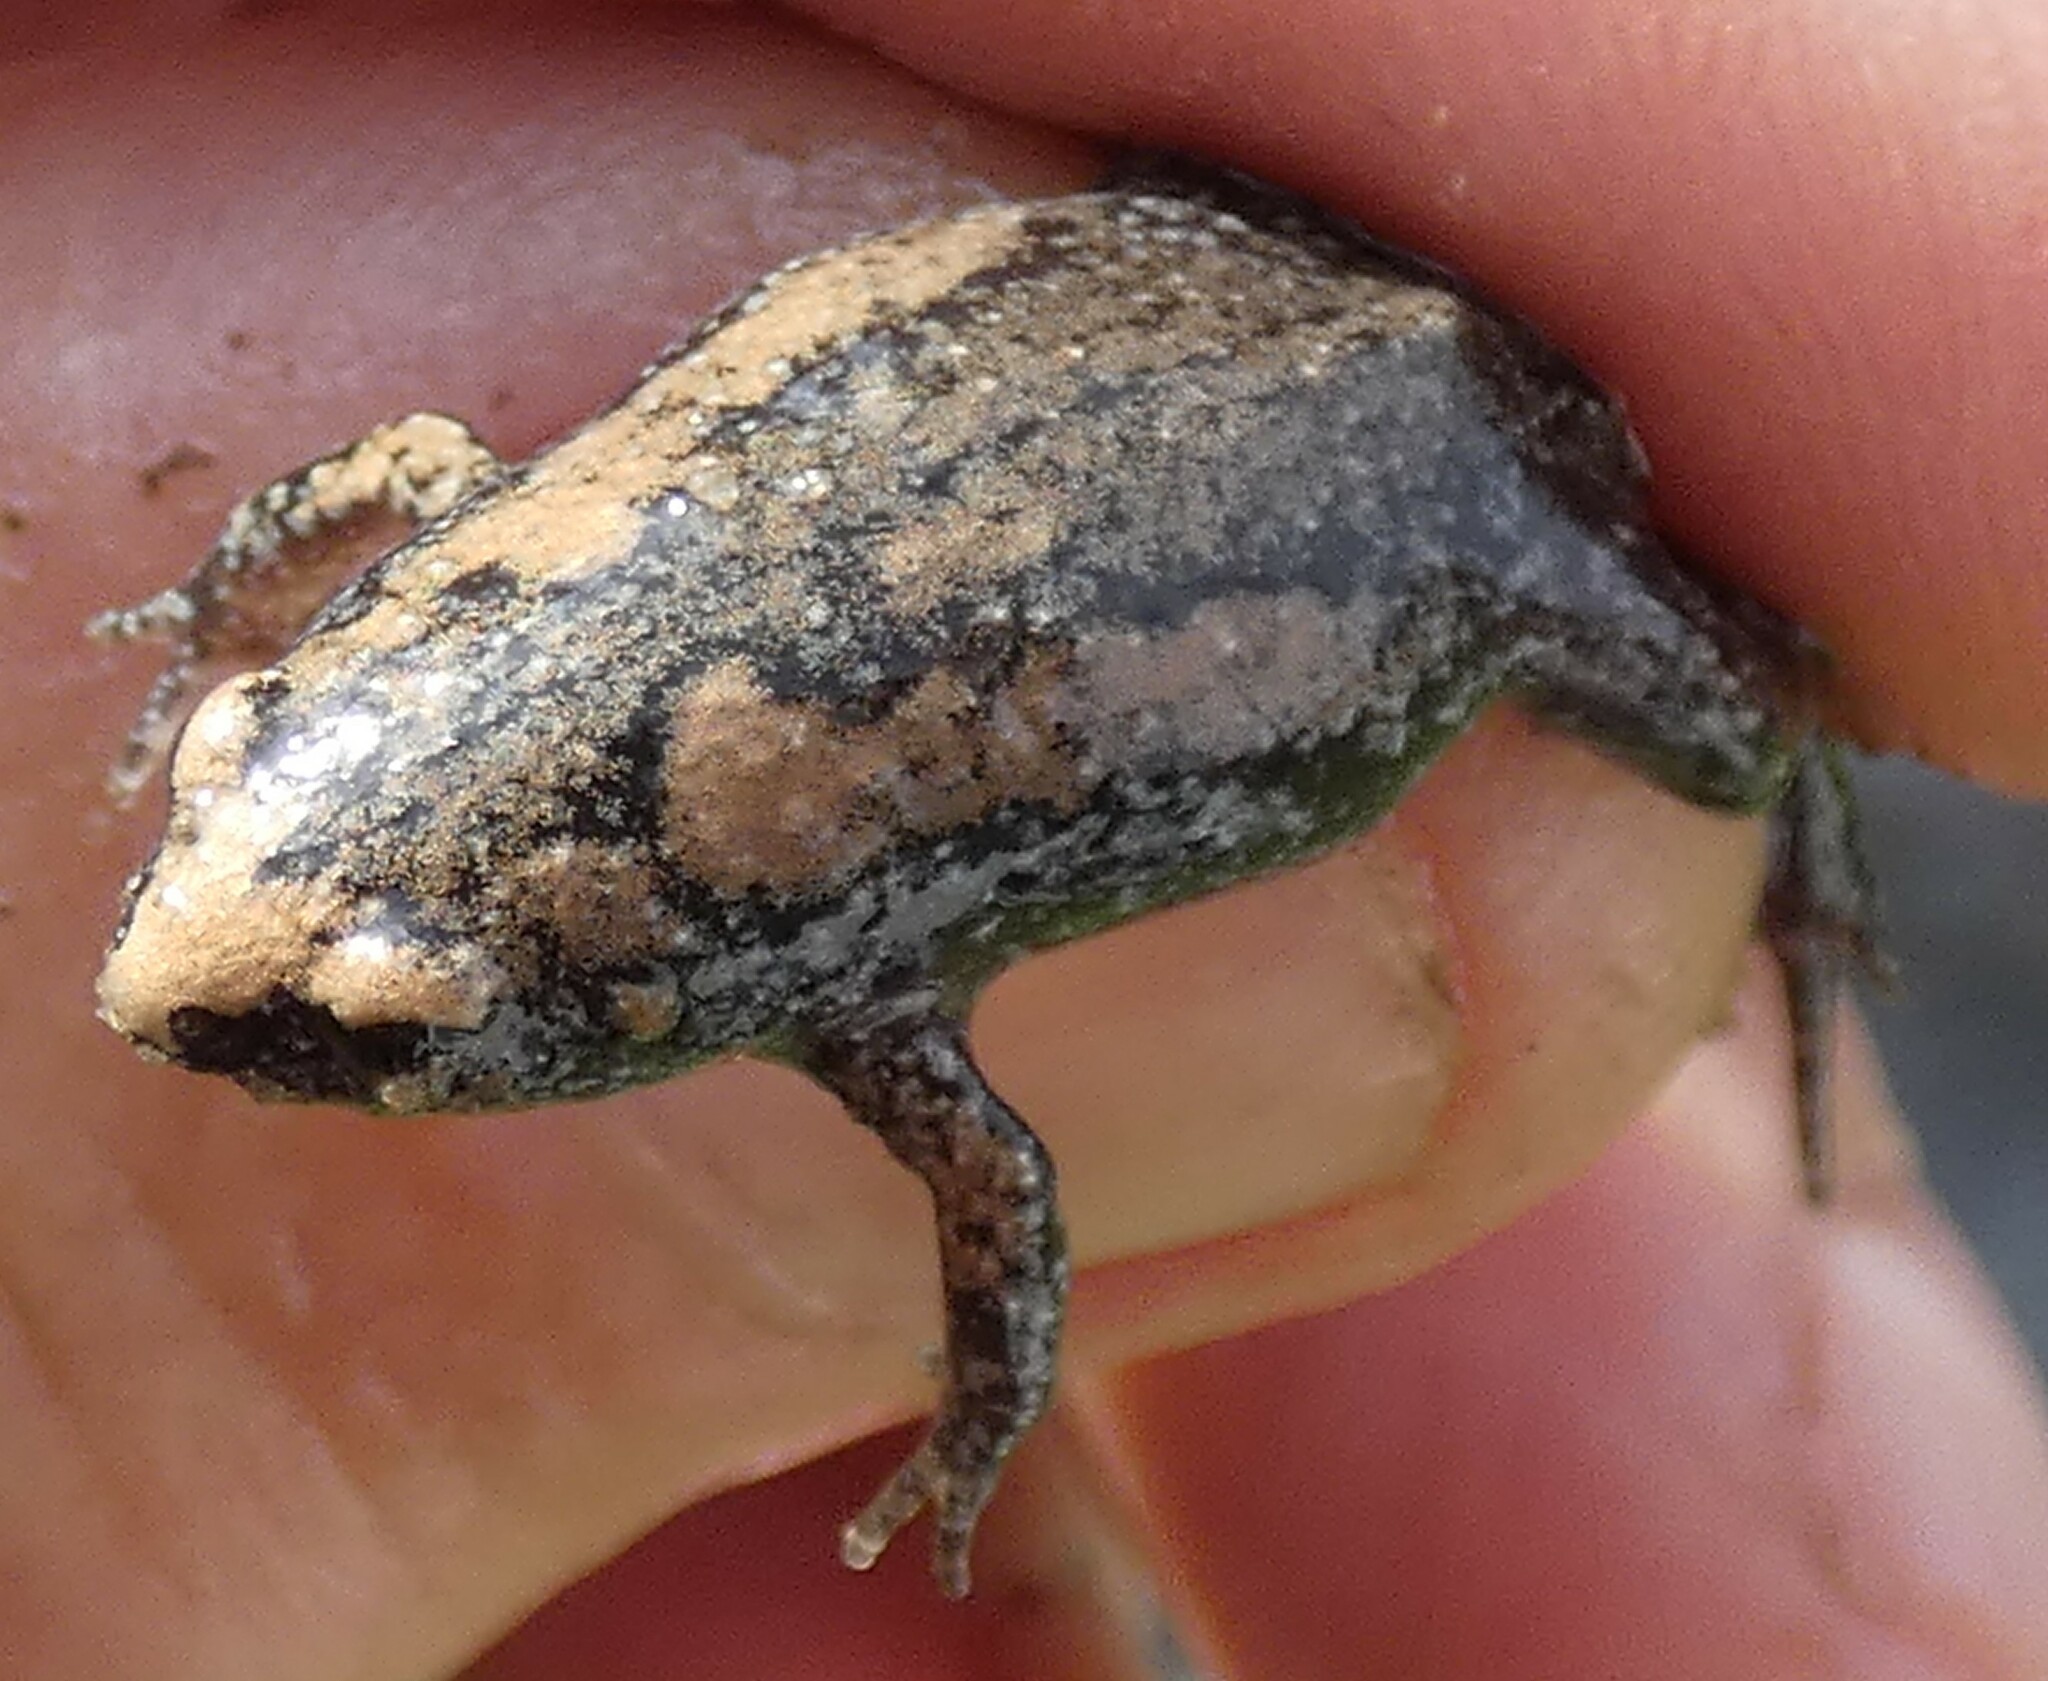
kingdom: Animalia
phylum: Chordata
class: Amphibia
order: Anura
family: Microhylidae
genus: Gastrophryne
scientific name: Gastrophryne carolinensis
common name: Eastern narrowmouth toad
